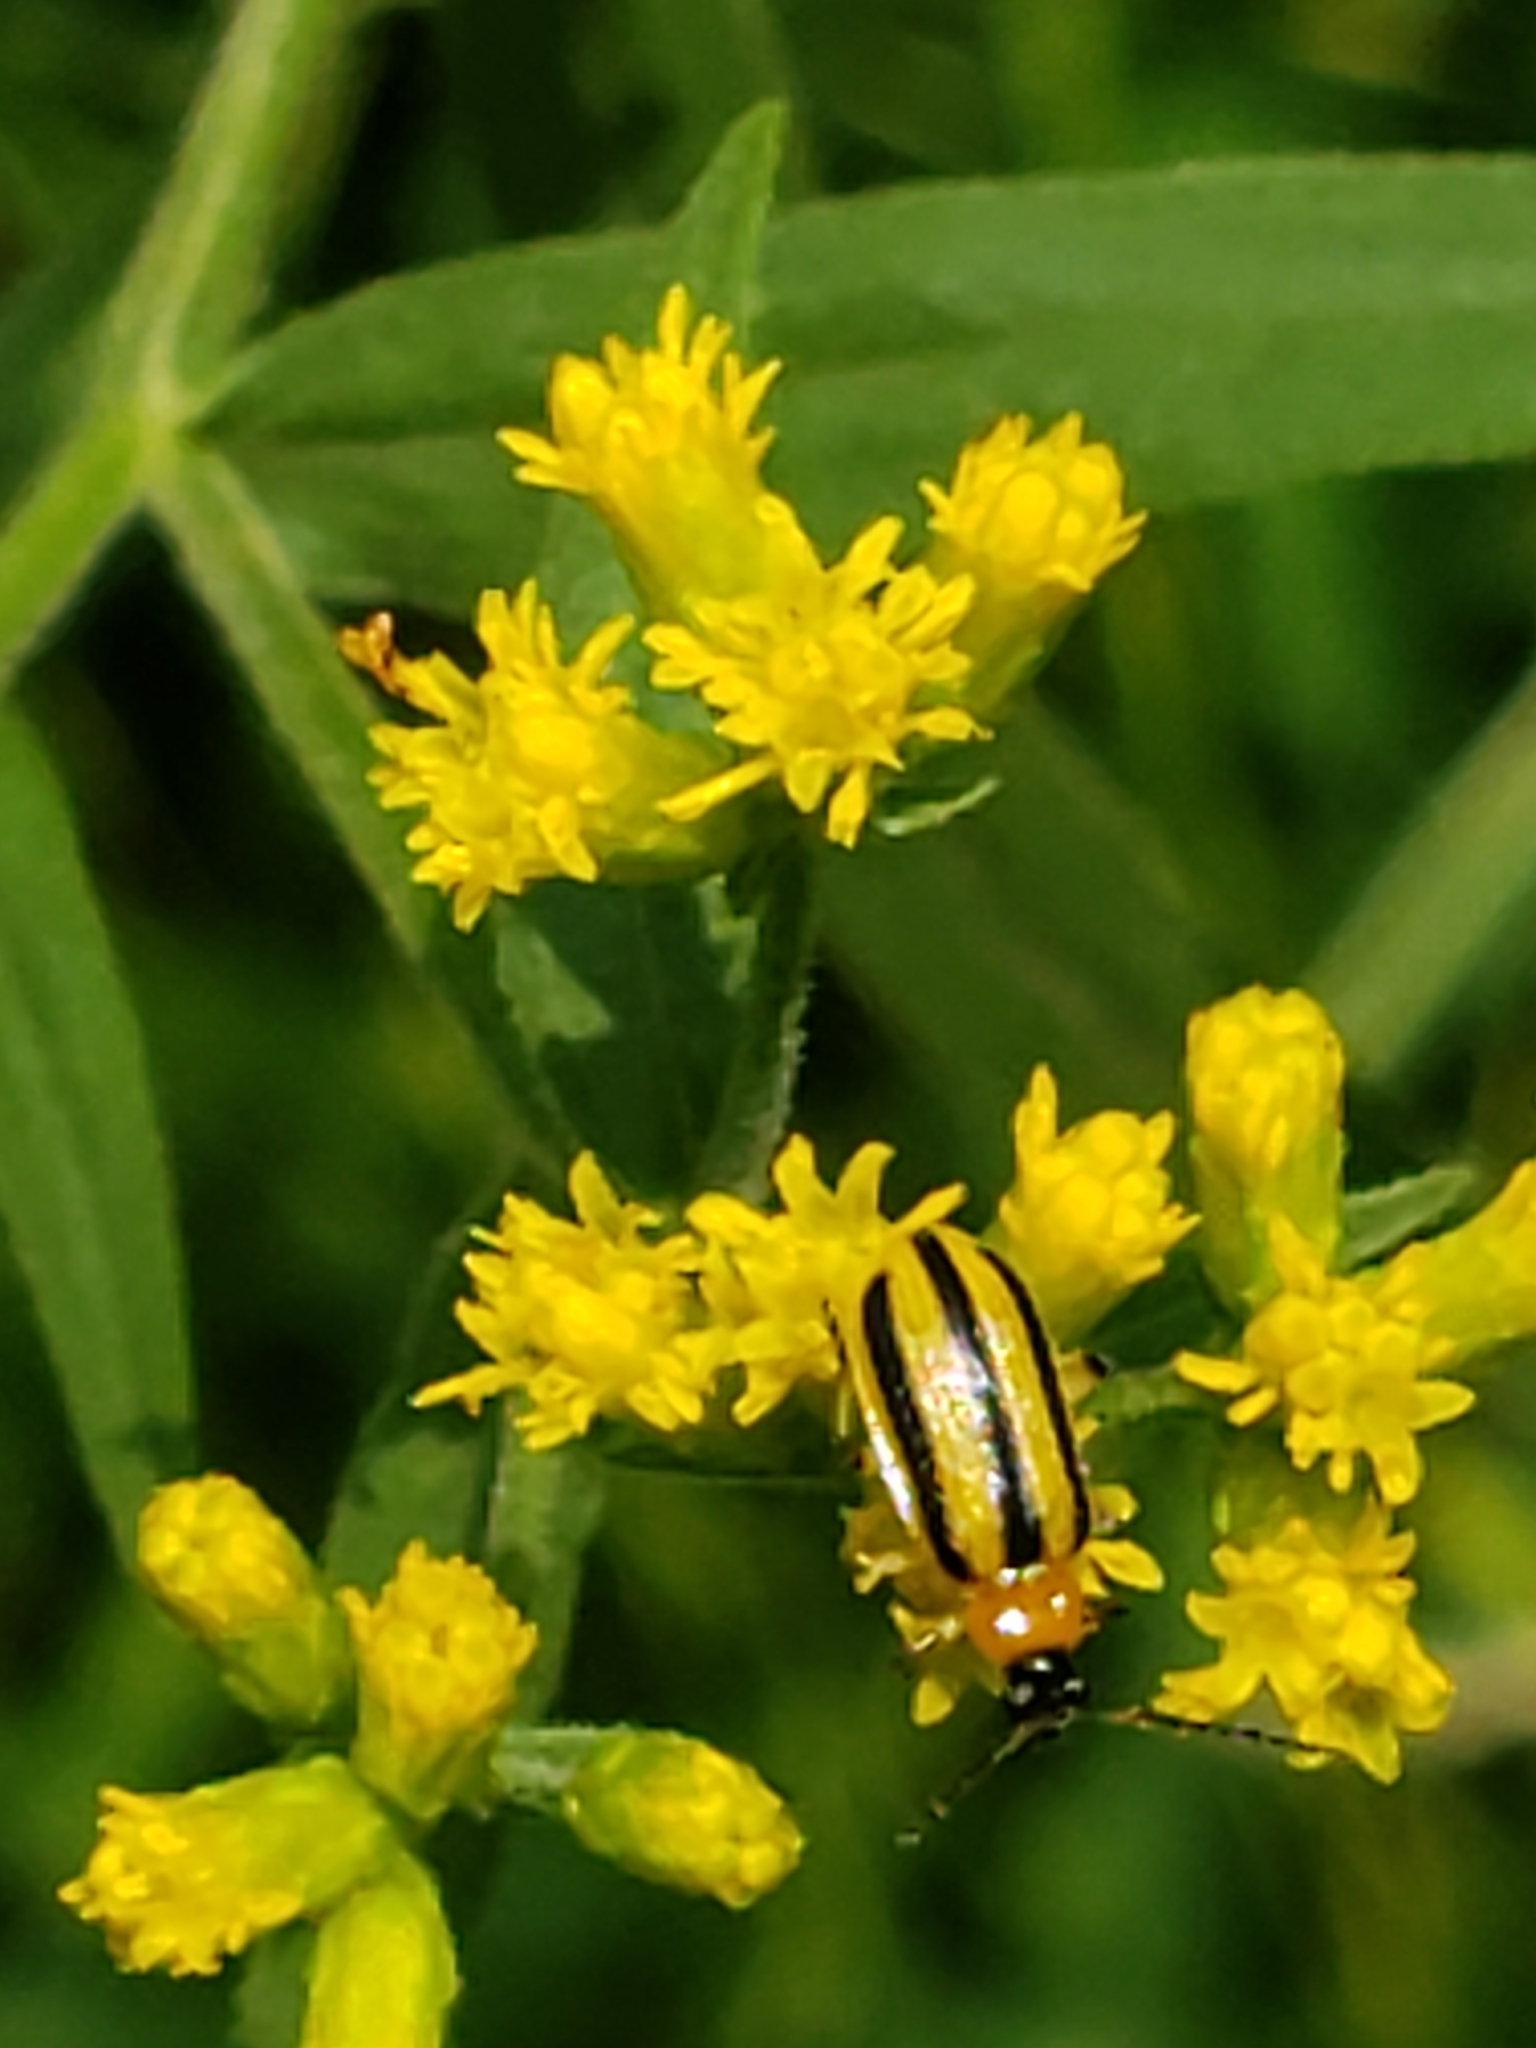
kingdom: Animalia
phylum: Arthropoda
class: Insecta
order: Coleoptera
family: Chrysomelidae
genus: Acalymma
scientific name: Acalymma vittatum
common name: Striped cucumber beetle
